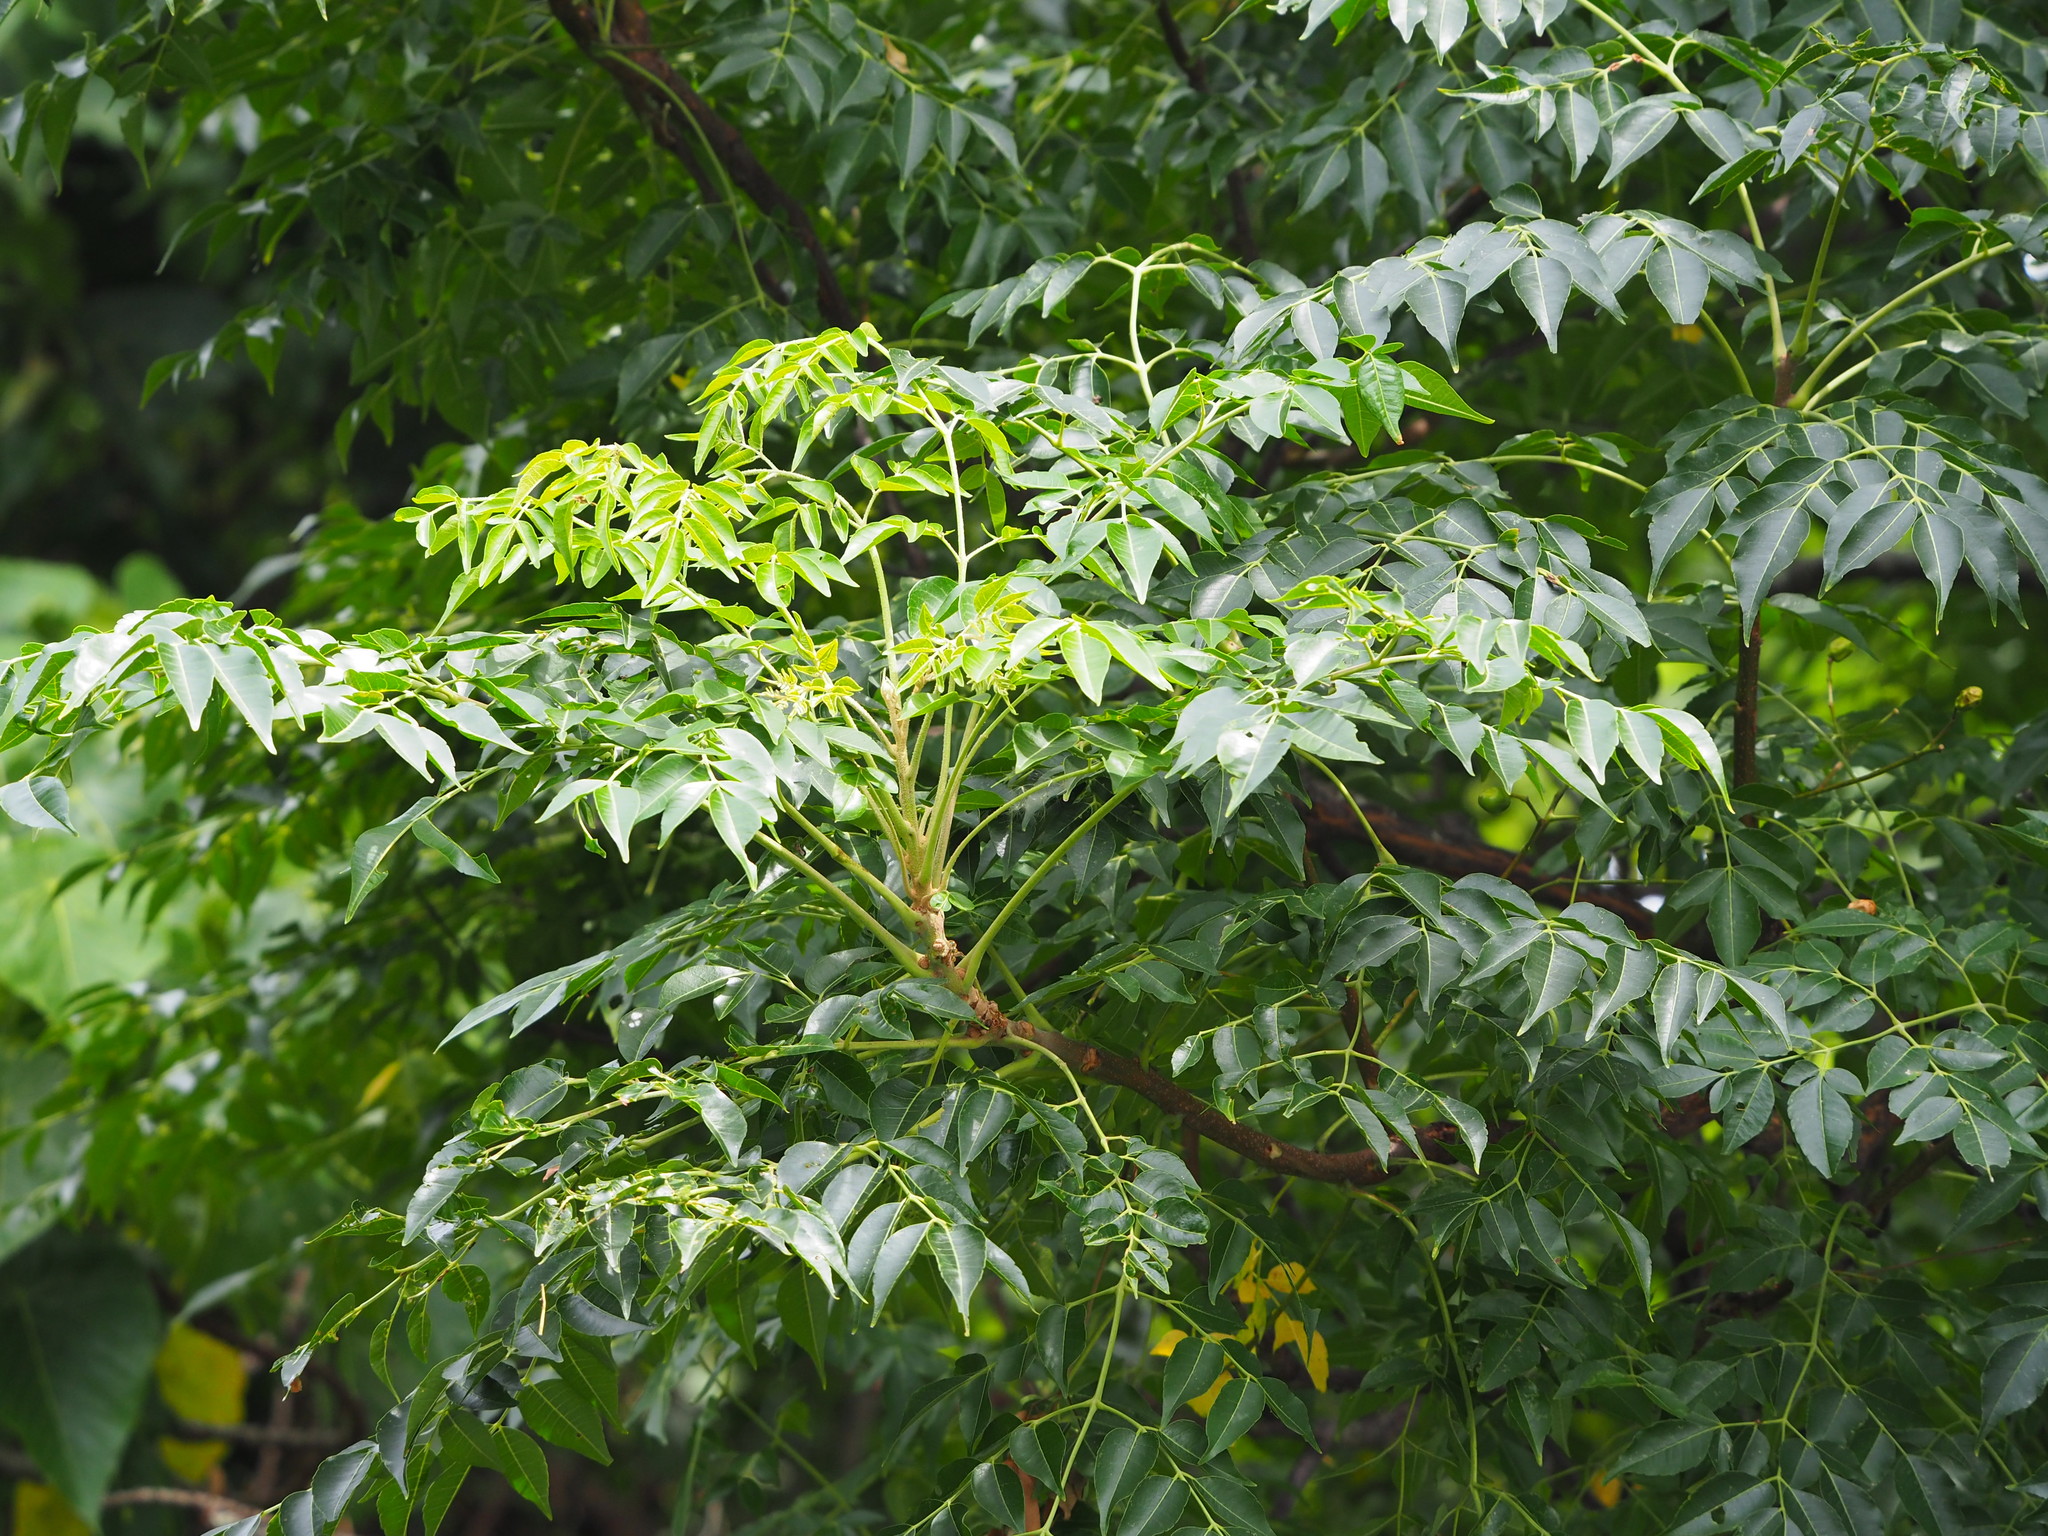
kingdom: Plantae
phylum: Tracheophyta
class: Magnoliopsida
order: Sapindales
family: Meliaceae
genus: Melia
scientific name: Melia azedarach
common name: Chinaberrytree
